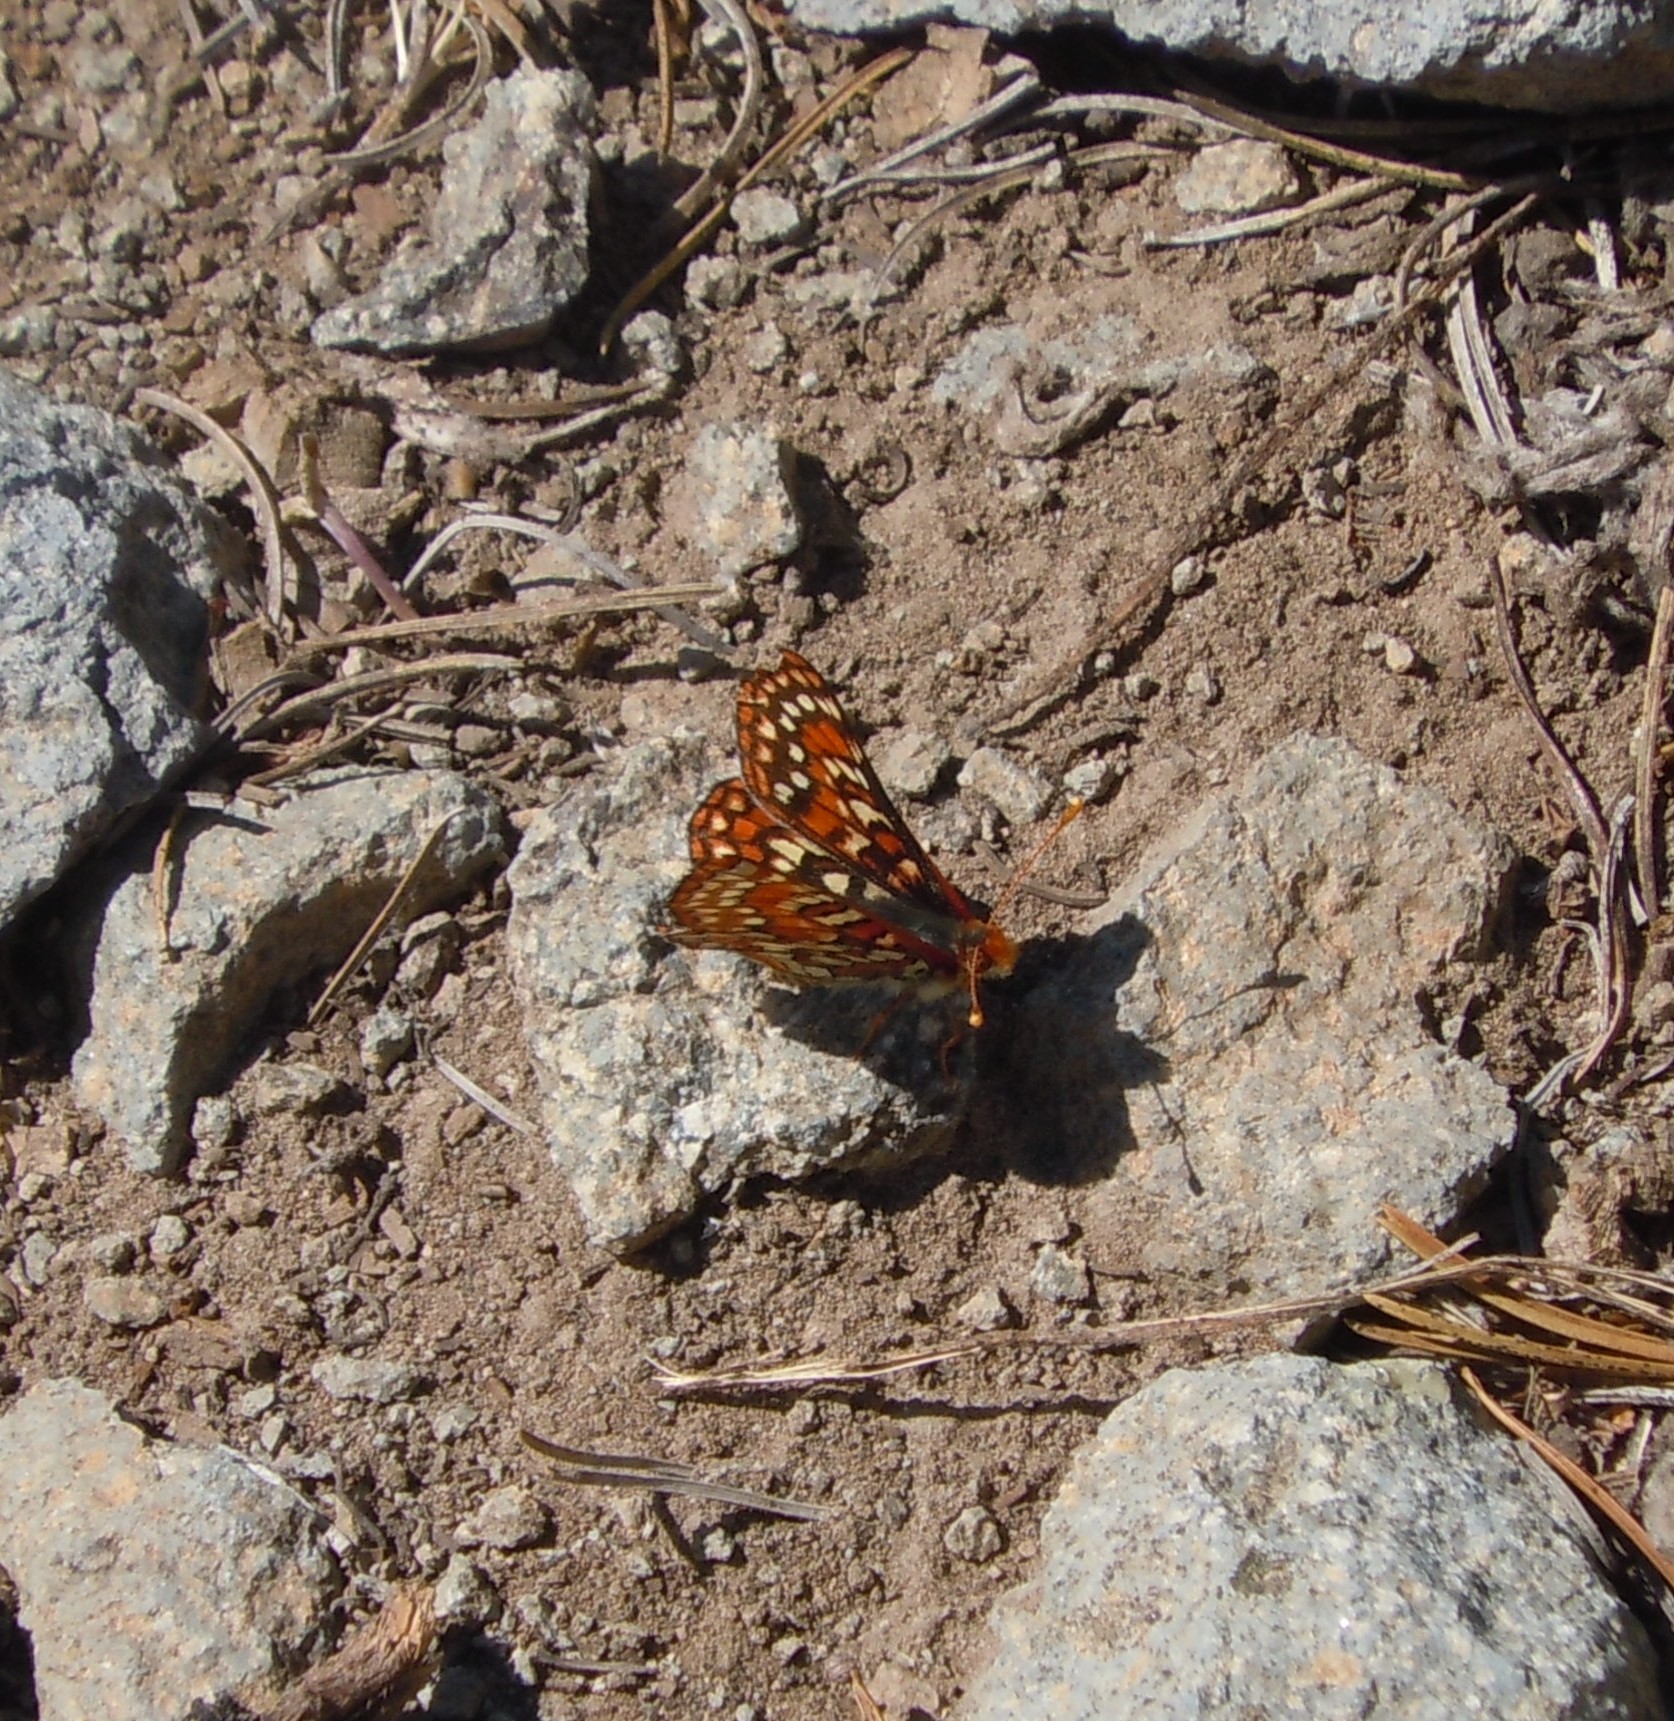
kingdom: Animalia
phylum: Arthropoda
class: Insecta
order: Lepidoptera
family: Nymphalidae
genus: Occidryas
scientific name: Occidryas editha
